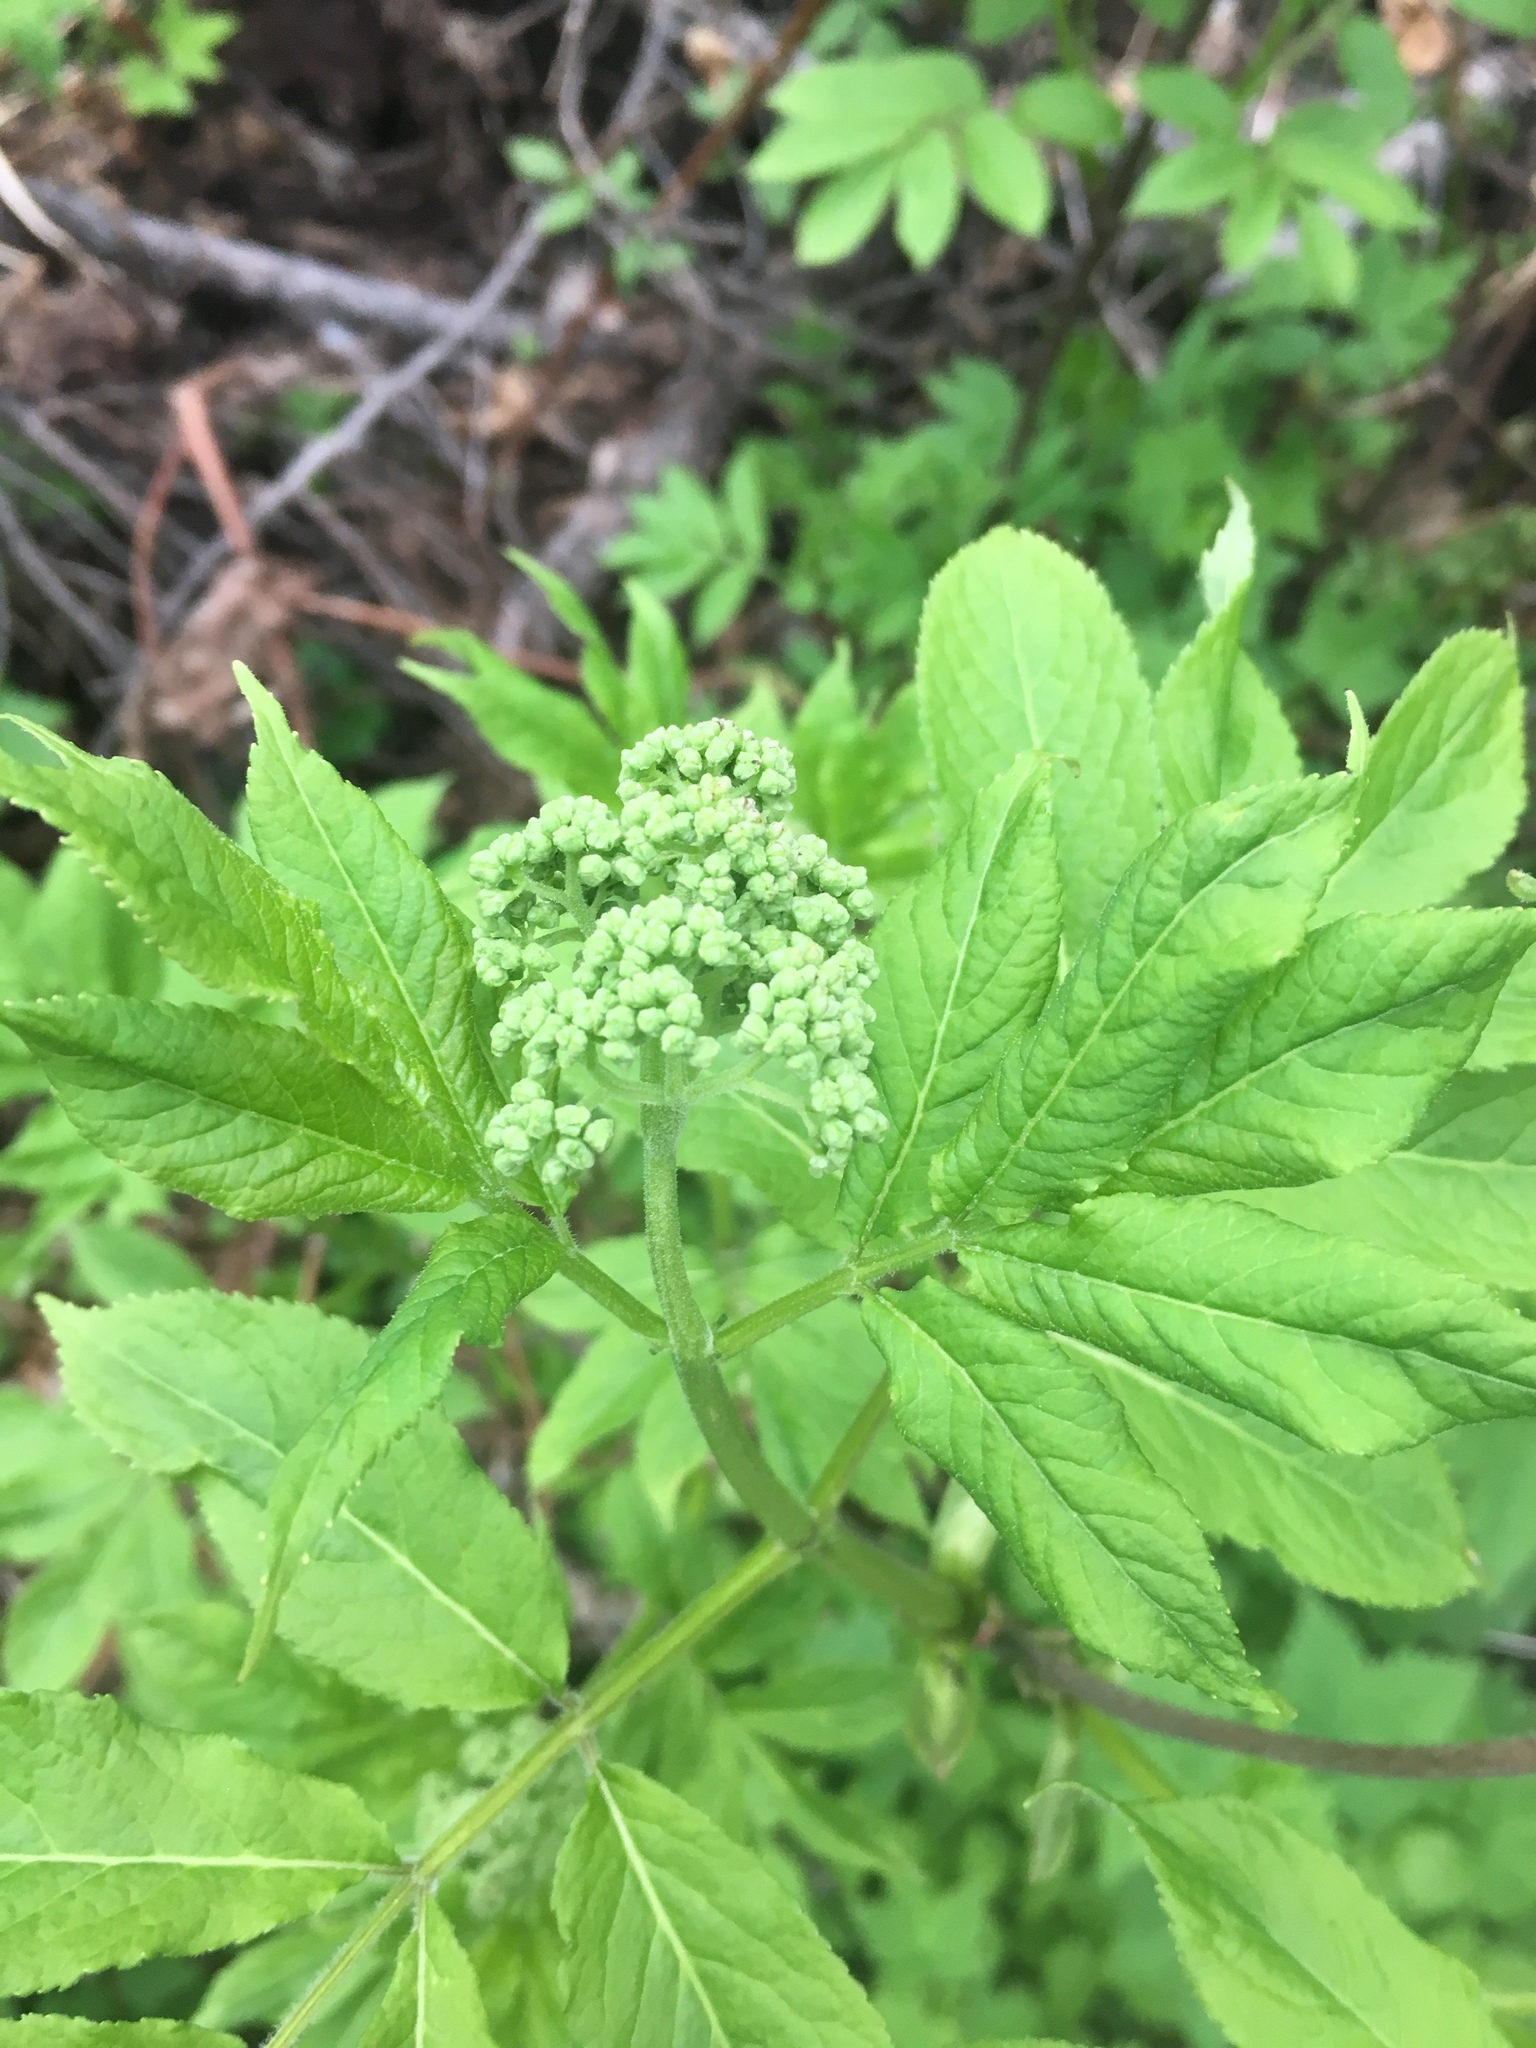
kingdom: Plantae
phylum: Tracheophyta
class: Magnoliopsida
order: Dipsacales
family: Viburnaceae
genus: Sambucus
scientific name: Sambucus racemosa
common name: Red-berried elder
